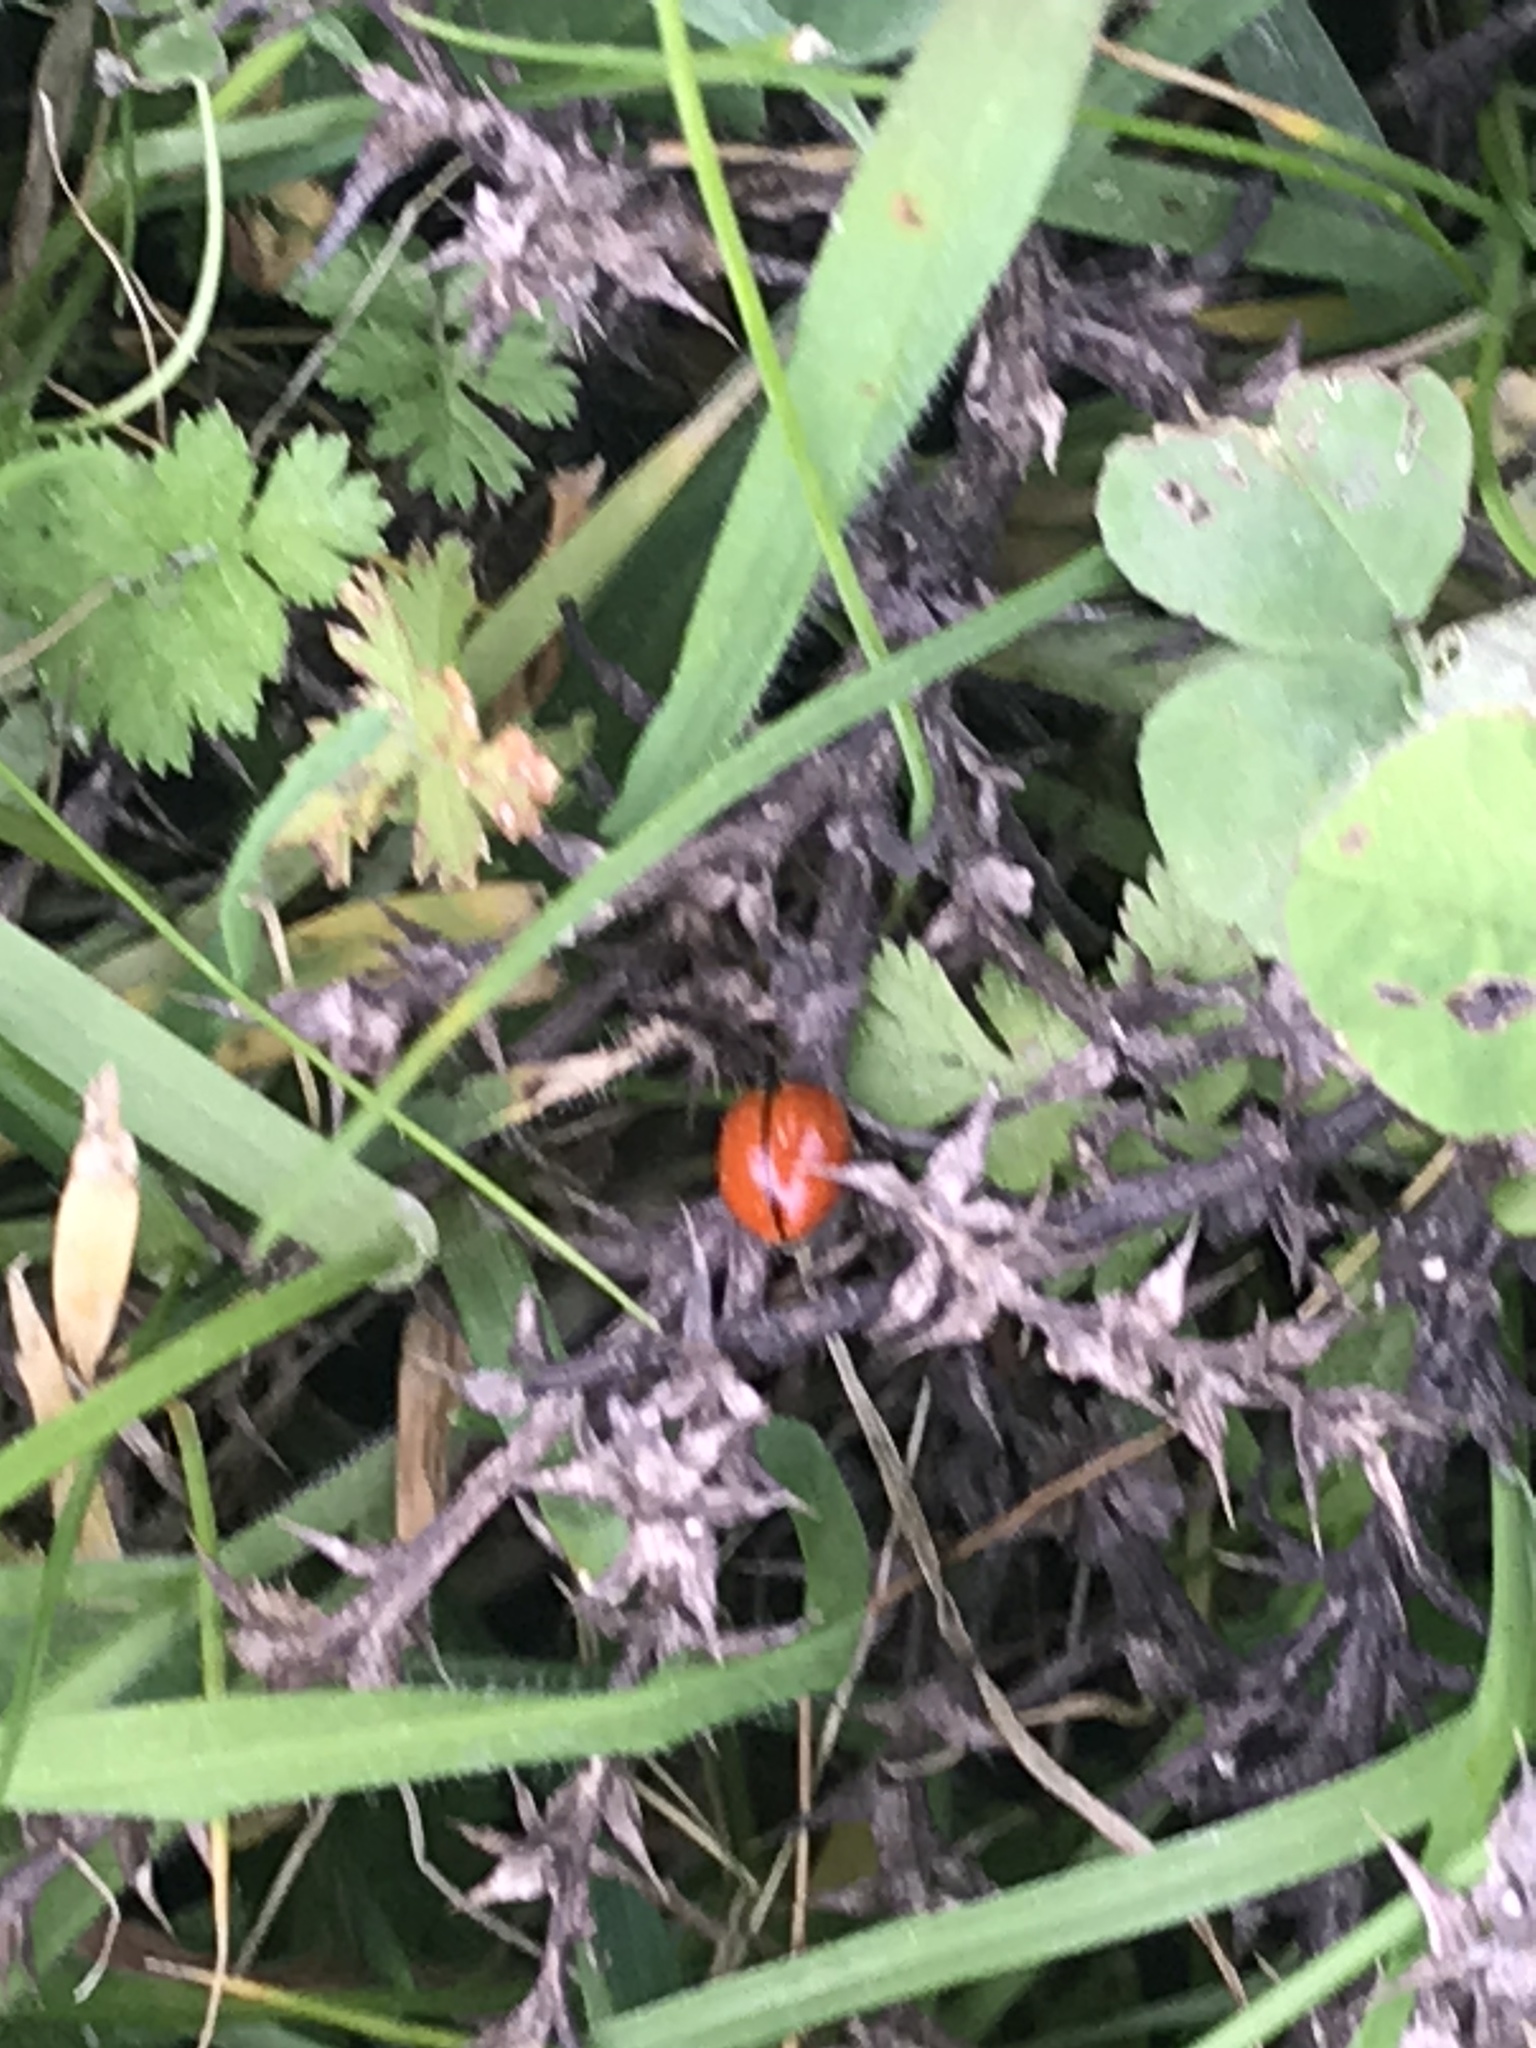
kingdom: Animalia
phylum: Arthropoda
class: Insecta
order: Coleoptera
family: Coccinellidae
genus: Coccinella
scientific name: Coccinella californica
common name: Lady beetle
